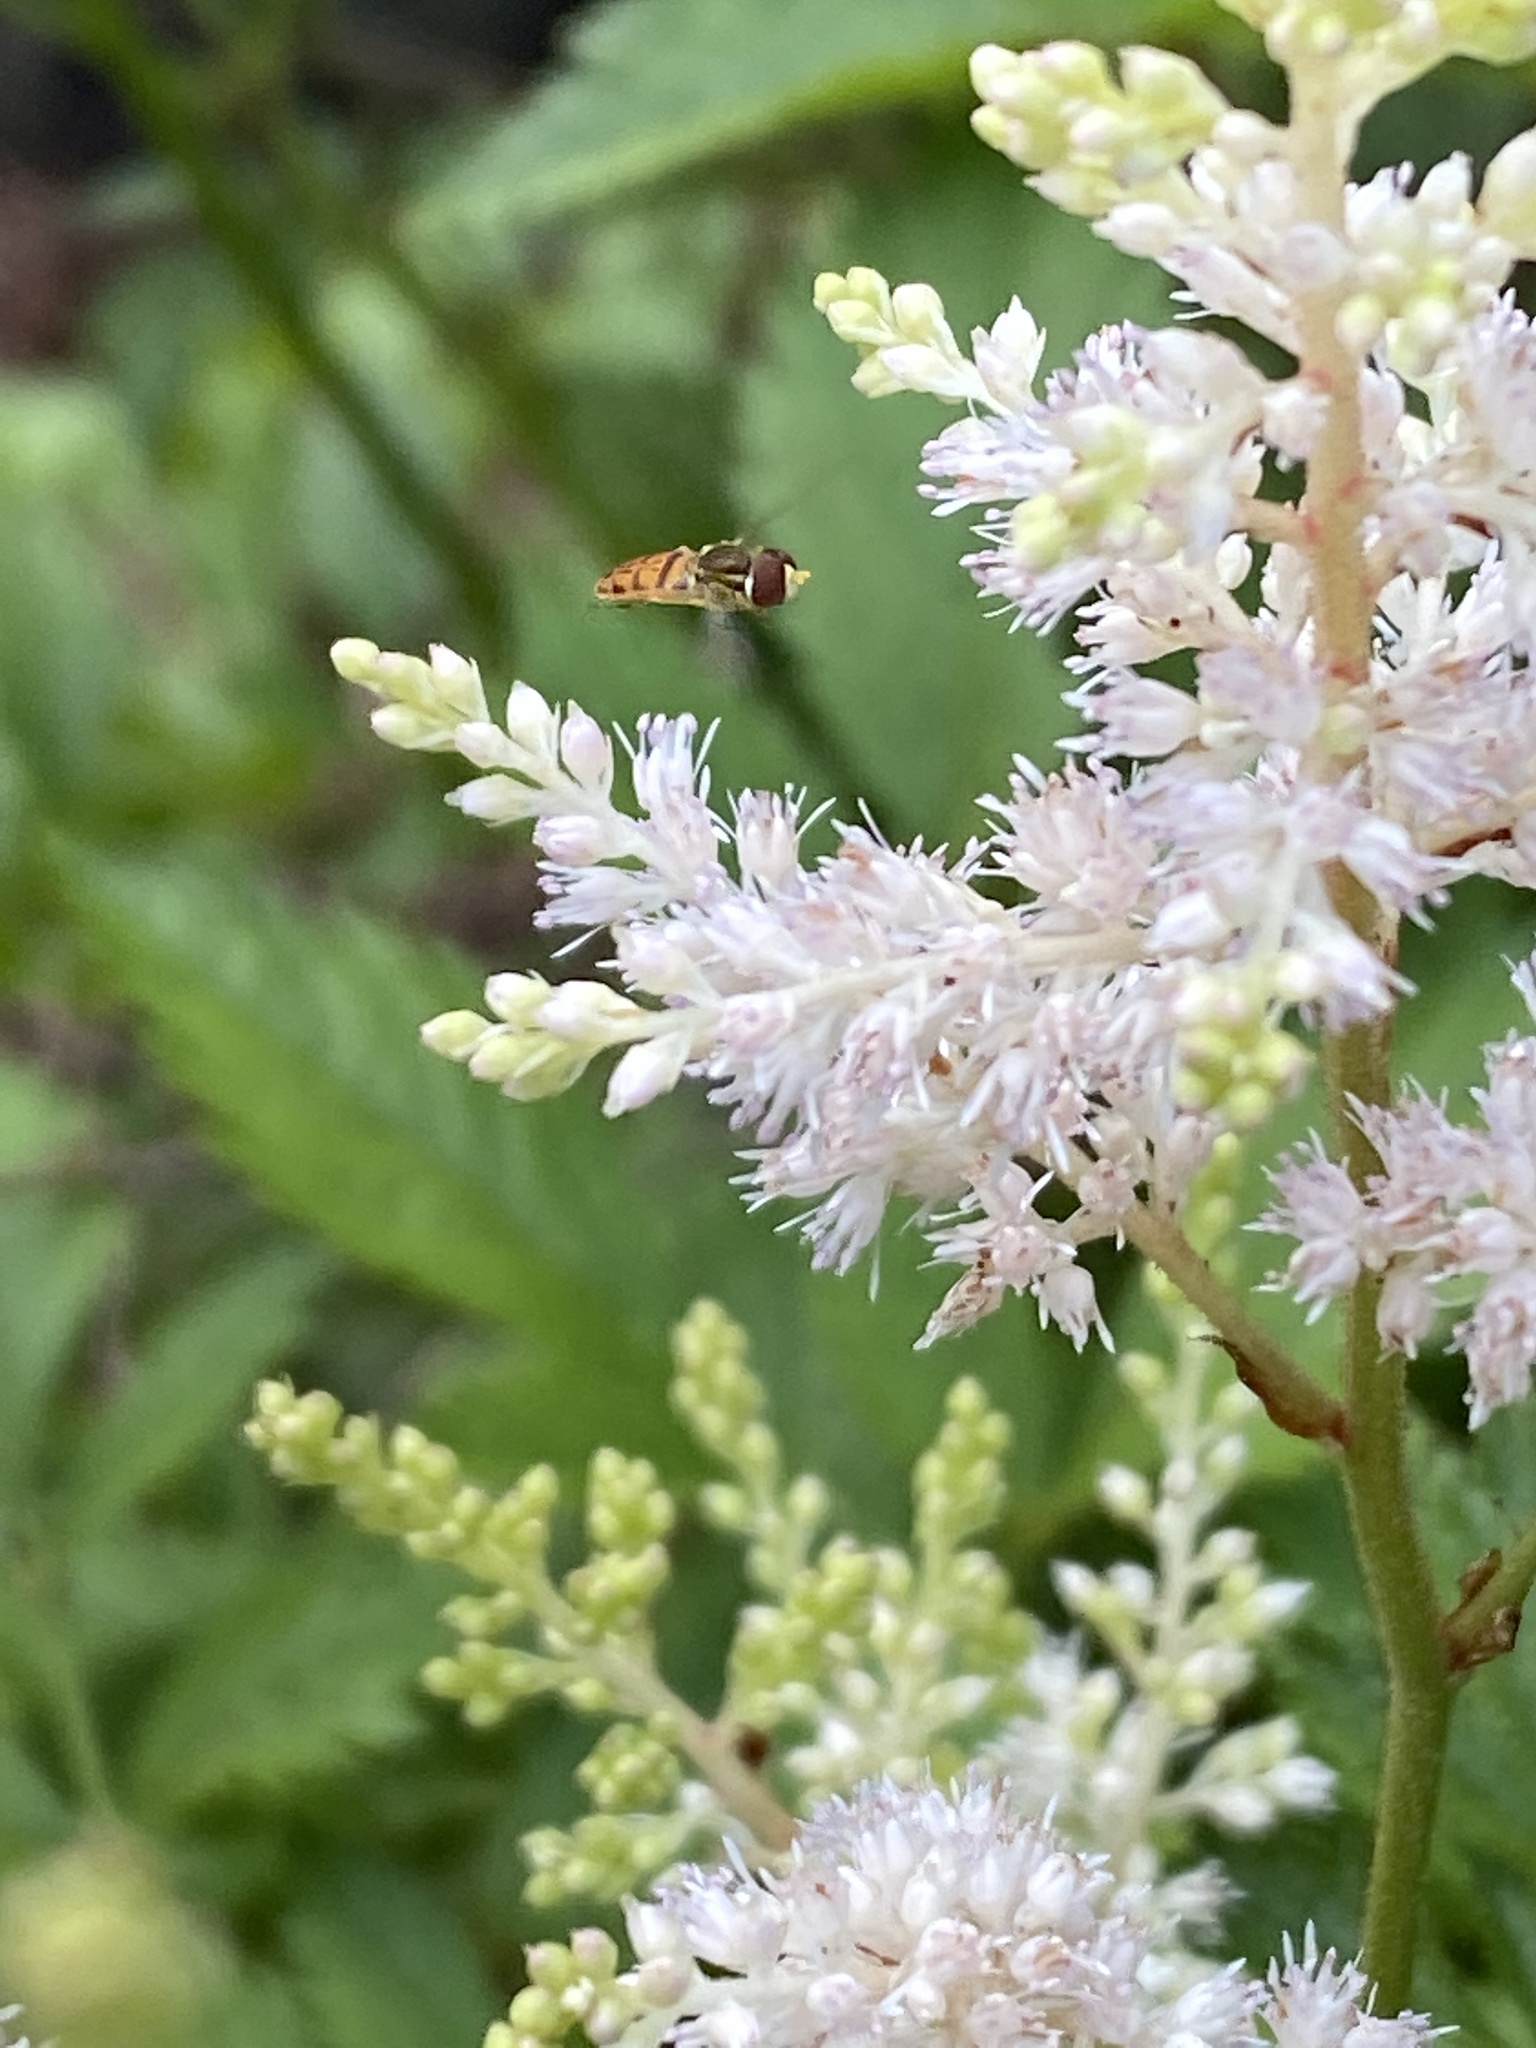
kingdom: Animalia
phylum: Arthropoda
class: Insecta
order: Diptera
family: Syrphidae
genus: Toxomerus
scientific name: Toxomerus marginatus
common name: Syrphid fly
